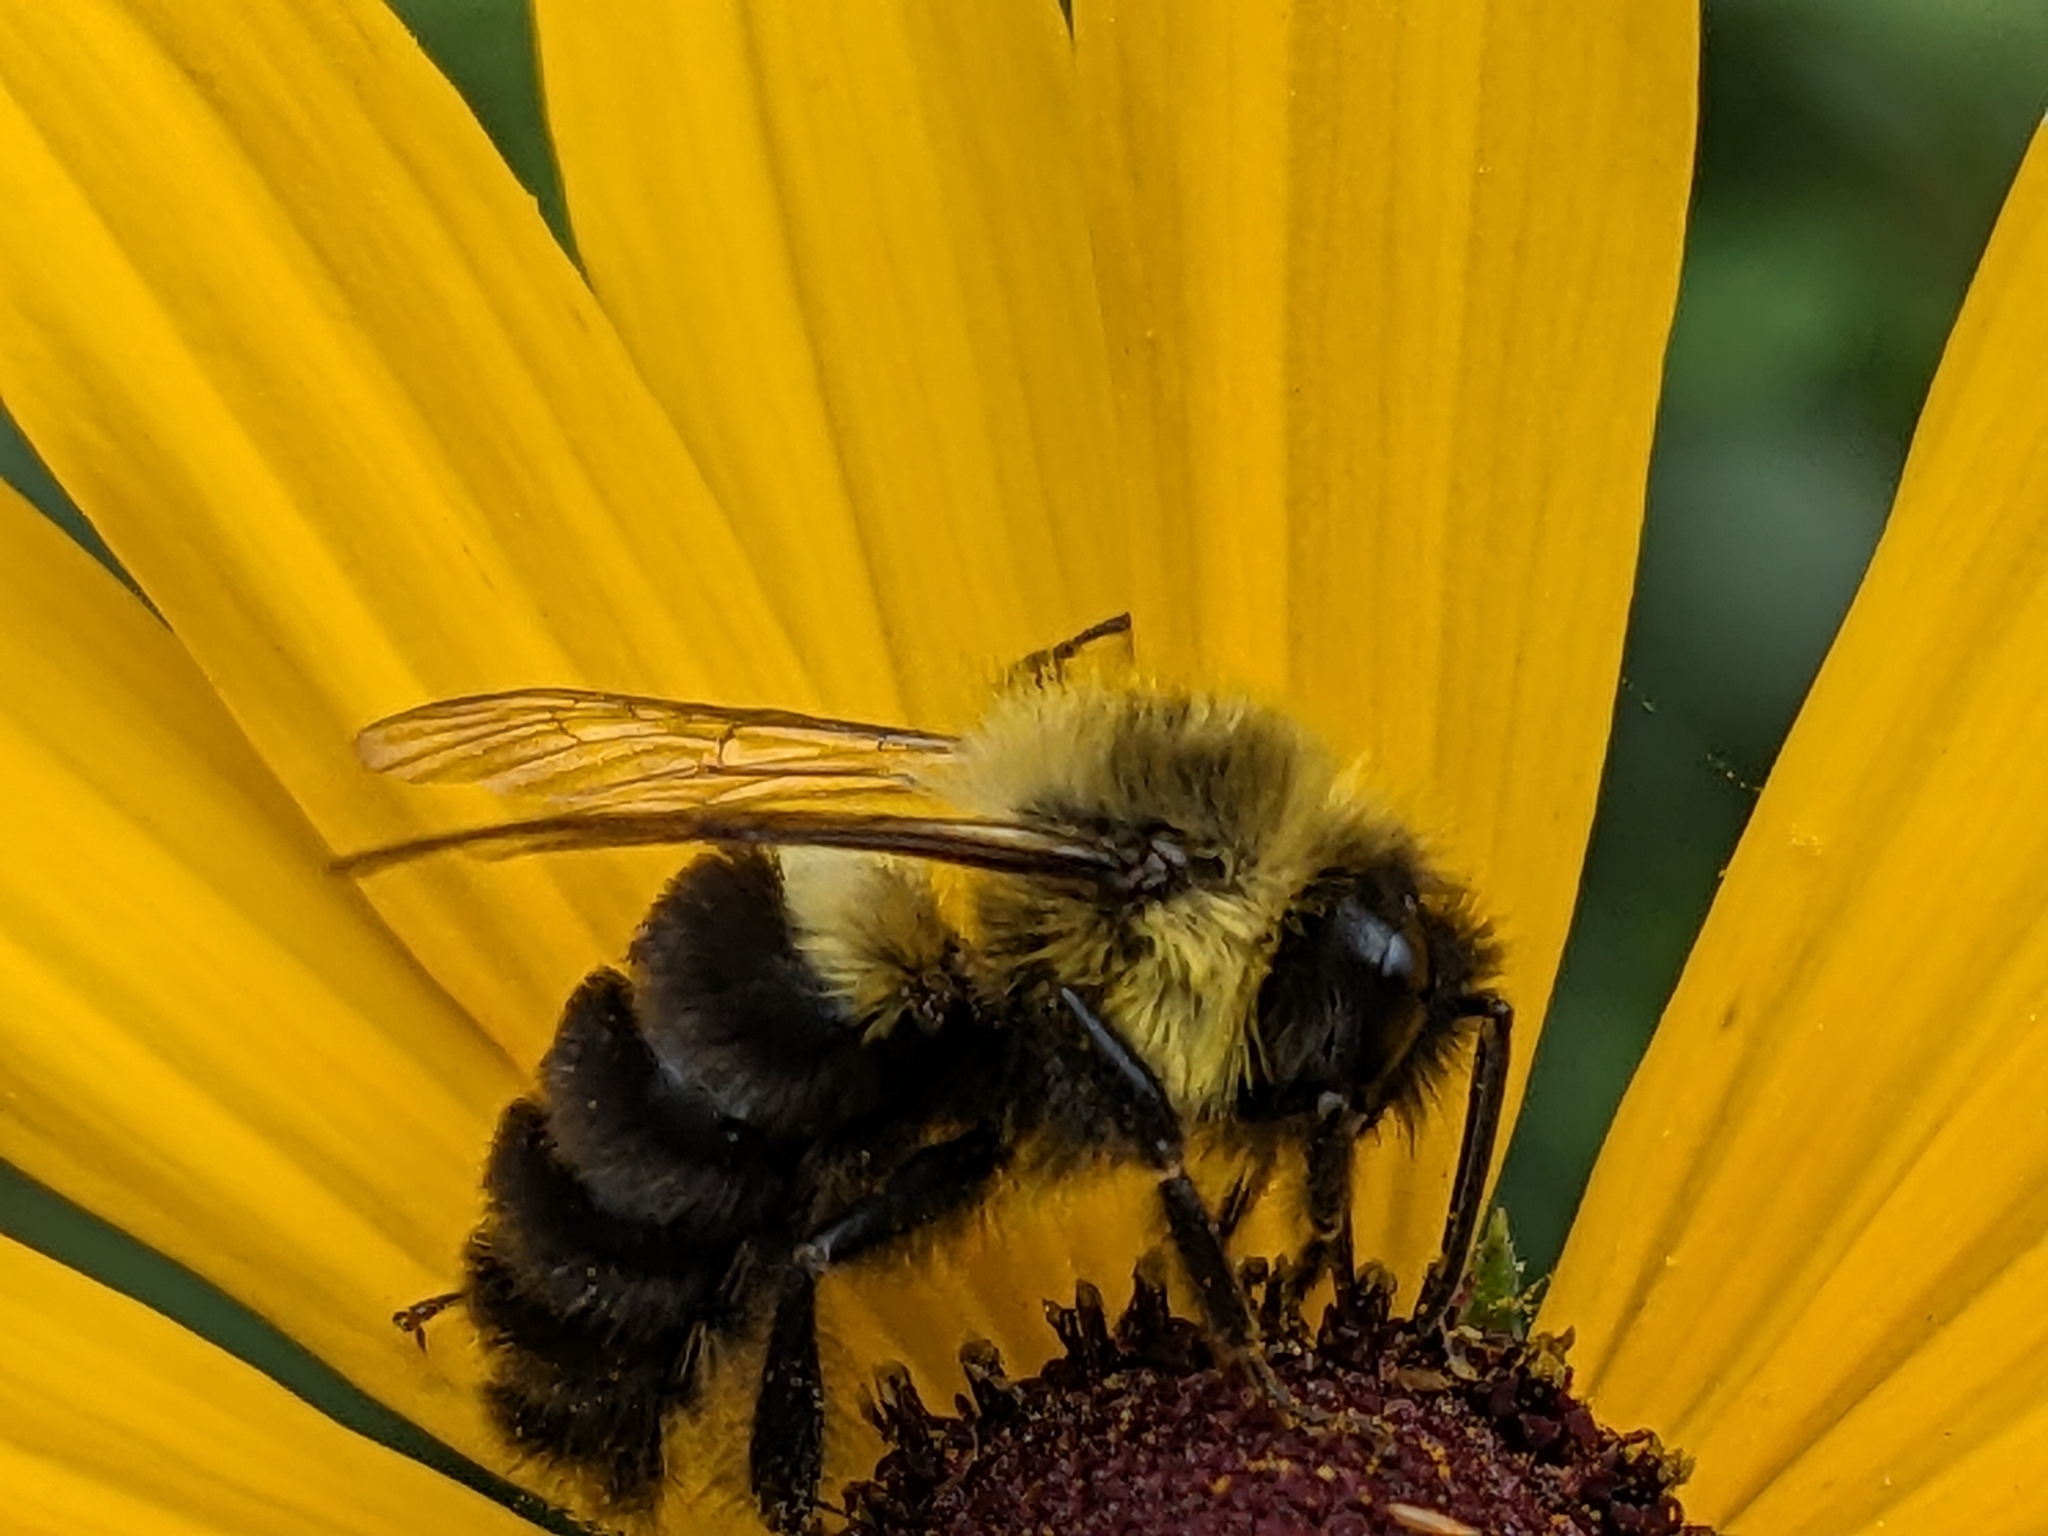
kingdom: Animalia
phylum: Arthropoda
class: Insecta
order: Hymenoptera
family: Apidae
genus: Bombus
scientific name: Bombus impatiens
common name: Common eastern bumble bee
